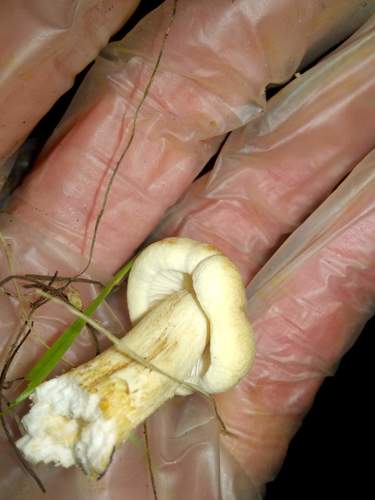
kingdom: Fungi
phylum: Basidiomycota
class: Agaricomycetes
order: Agaricales
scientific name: Agaricales
